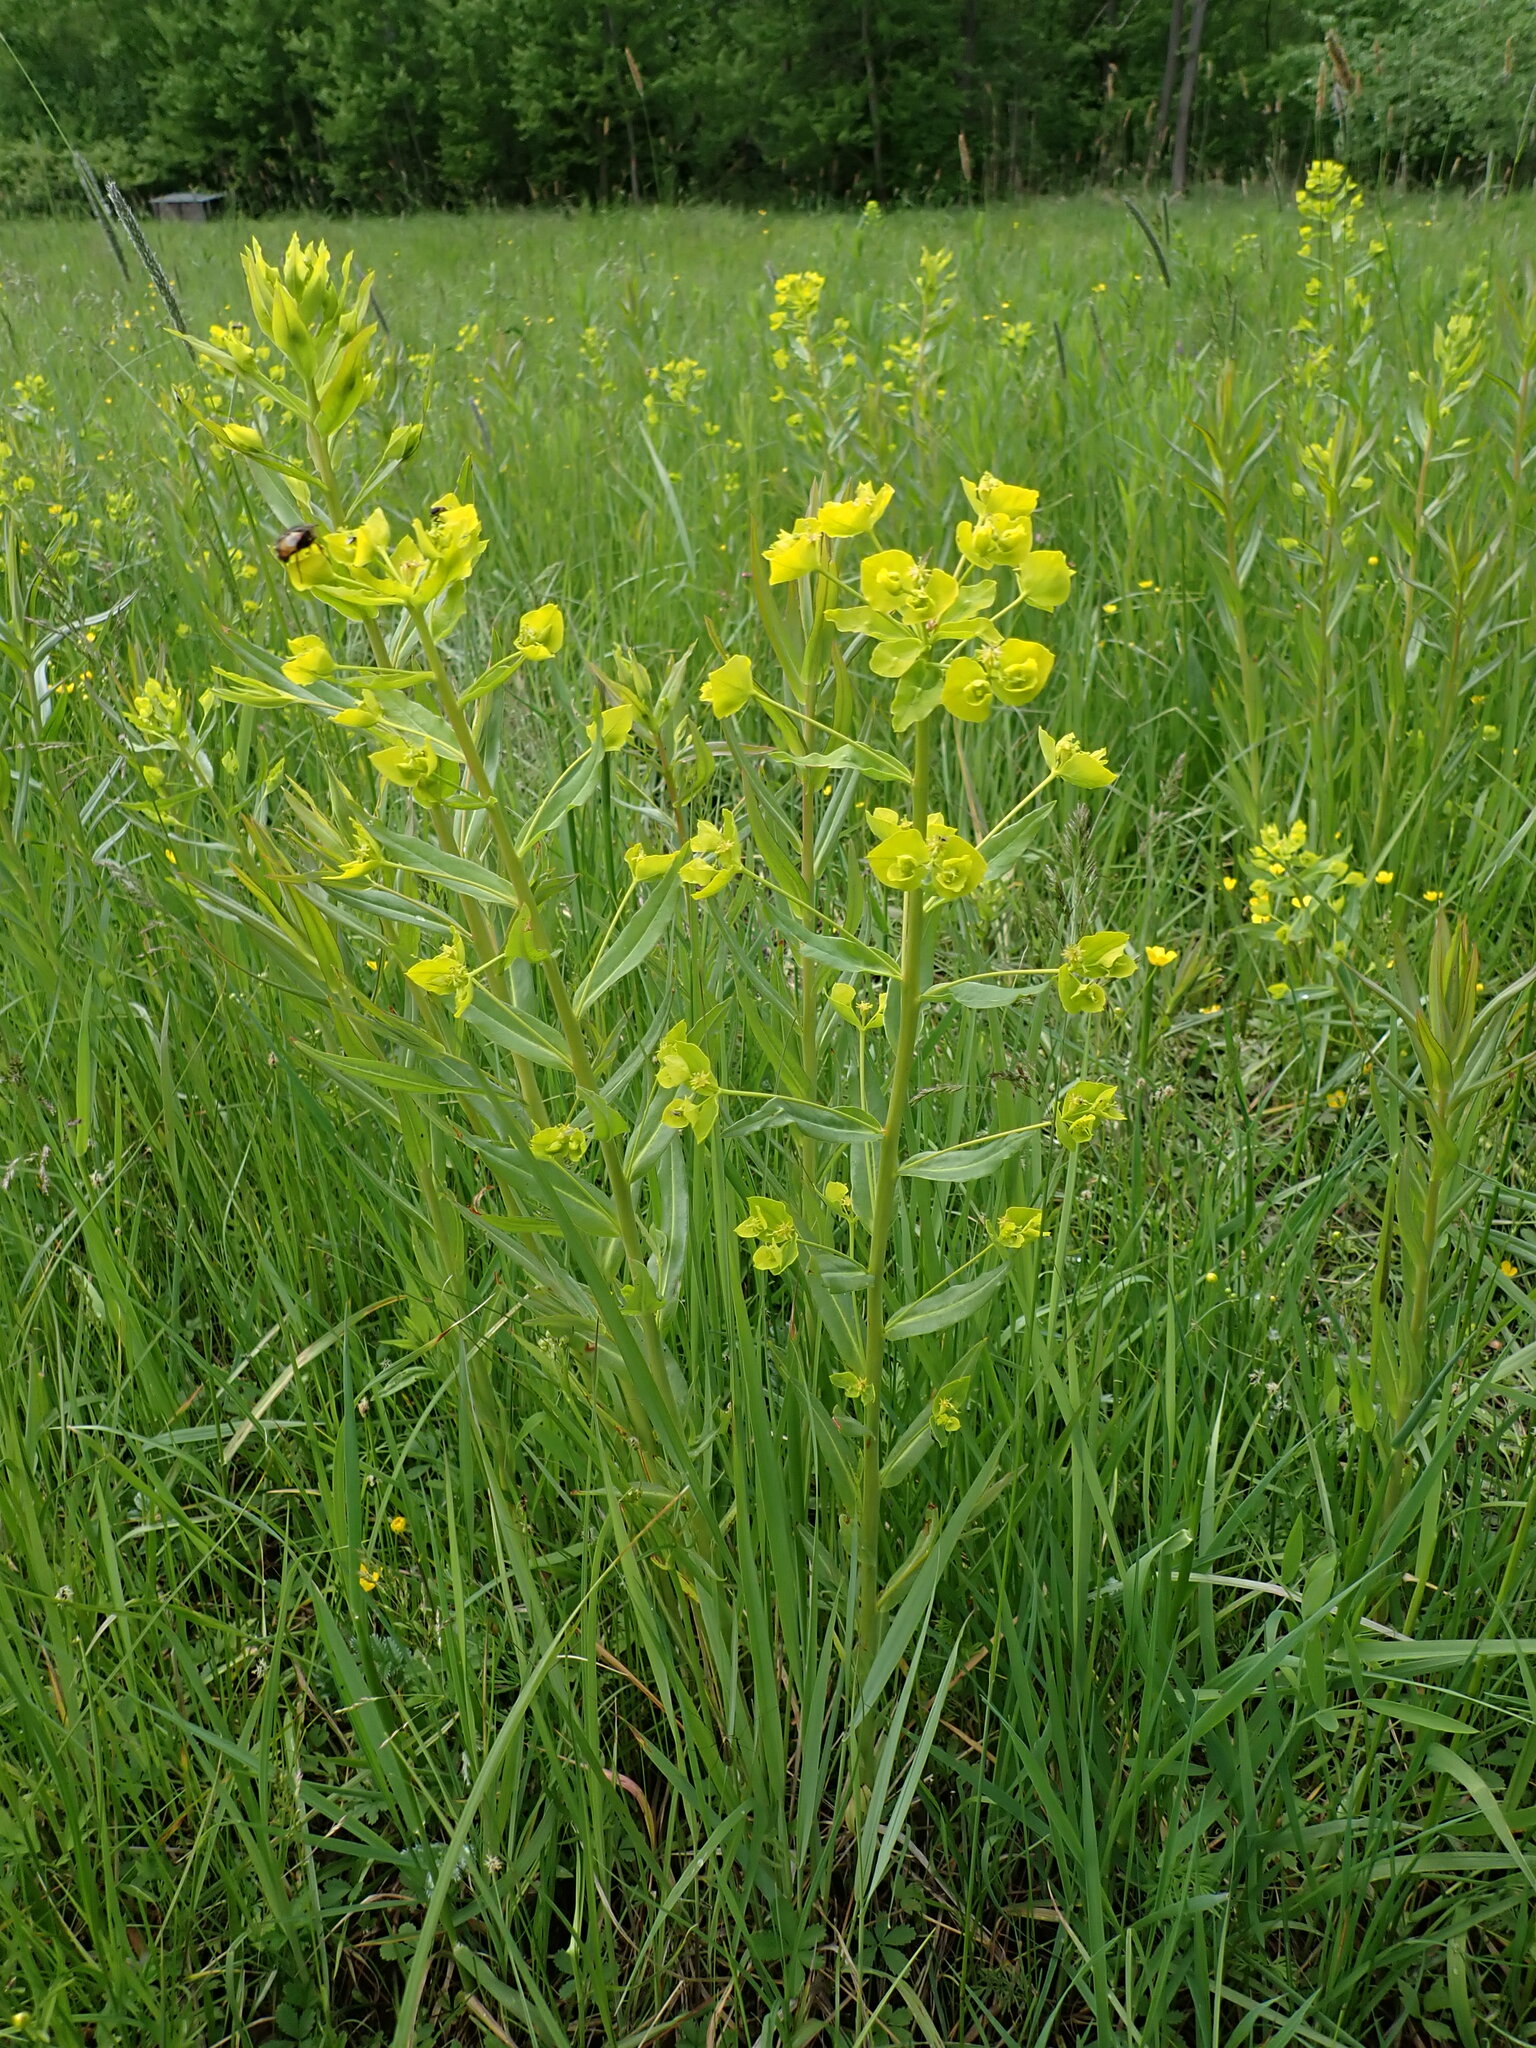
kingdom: Plantae
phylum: Tracheophyta
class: Magnoliopsida
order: Malpighiales
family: Euphorbiaceae
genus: Euphorbia
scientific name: Euphorbia lucida
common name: Shining spurge
